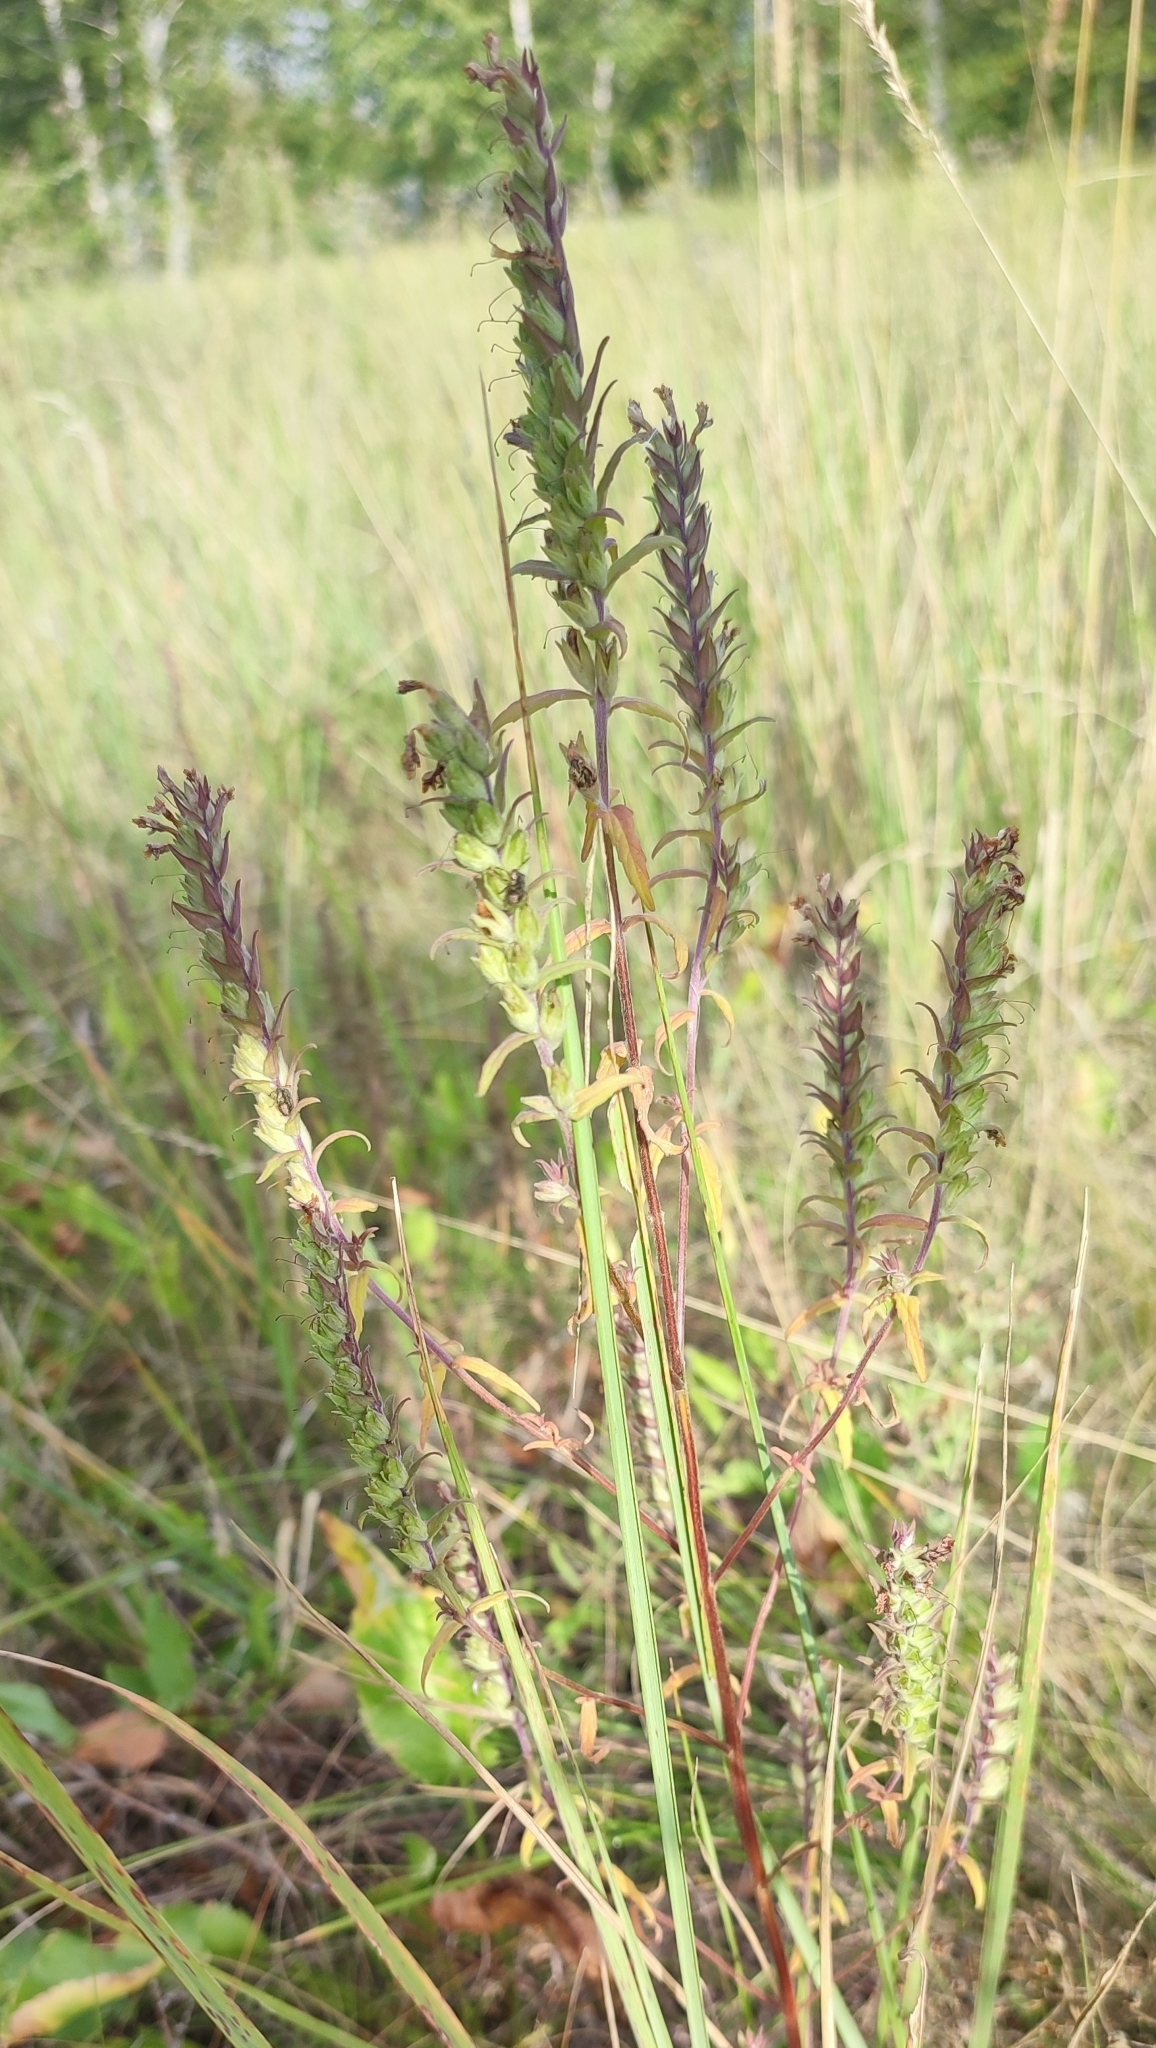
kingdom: Plantae
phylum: Tracheophyta
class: Magnoliopsida
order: Lamiales
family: Orobanchaceae
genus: Odontites
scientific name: Odontites vulgaris
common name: Broomrape
